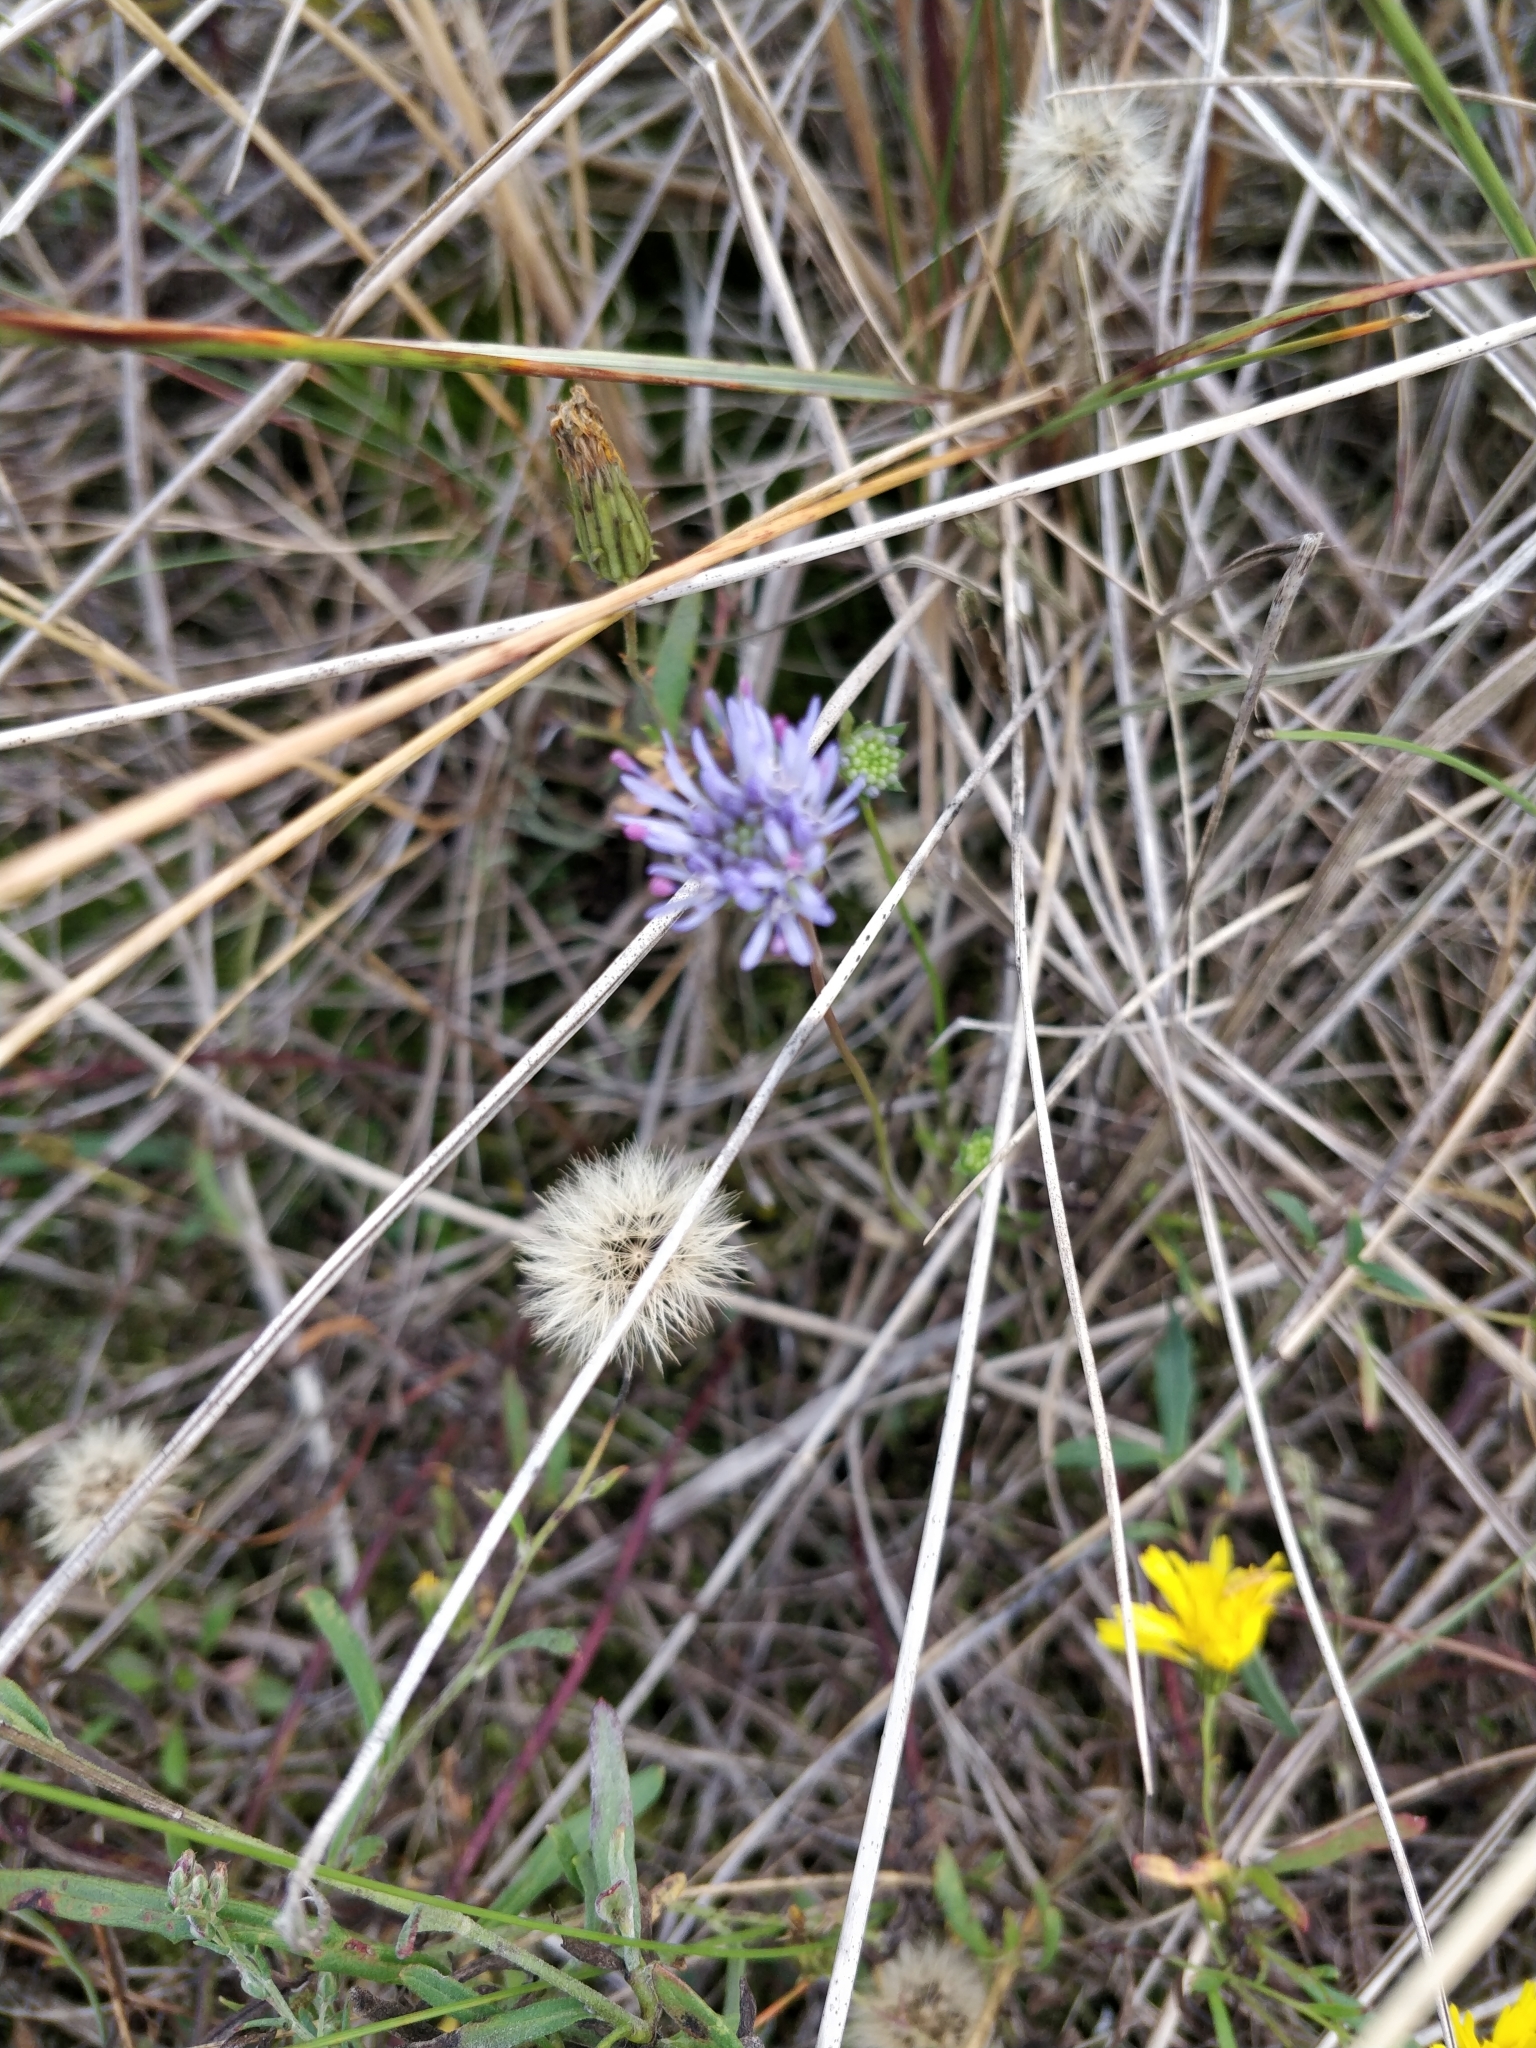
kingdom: Plantae
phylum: Tracheophyta
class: Magnoliopsida
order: Asterales
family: Campanulaceae
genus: Jasione
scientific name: Jasione montana
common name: Sheep's-bit
